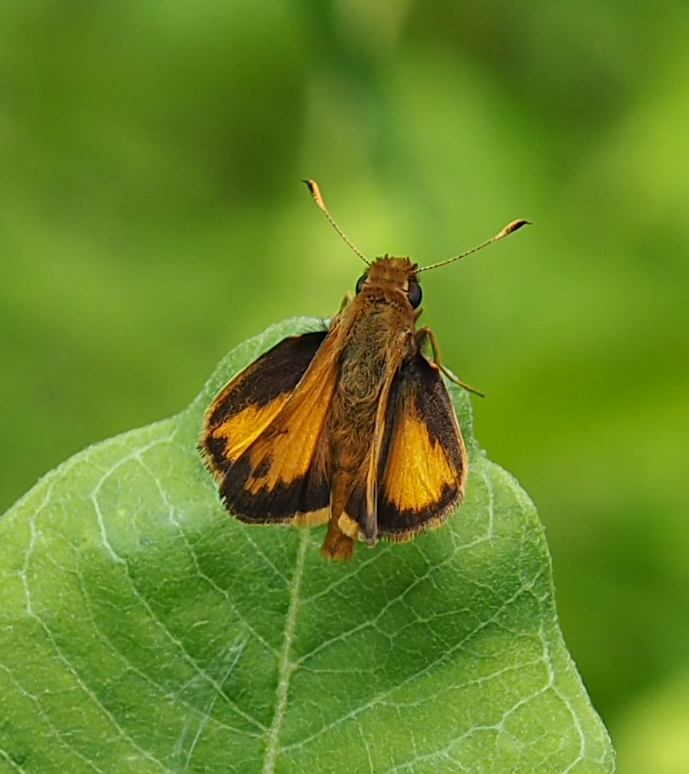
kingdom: Animalia
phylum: Arthropoda
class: Insecta
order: Lepidoptera
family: Hesperiidae
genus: Lon
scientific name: Lon zabulon
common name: Zabulon skipper
